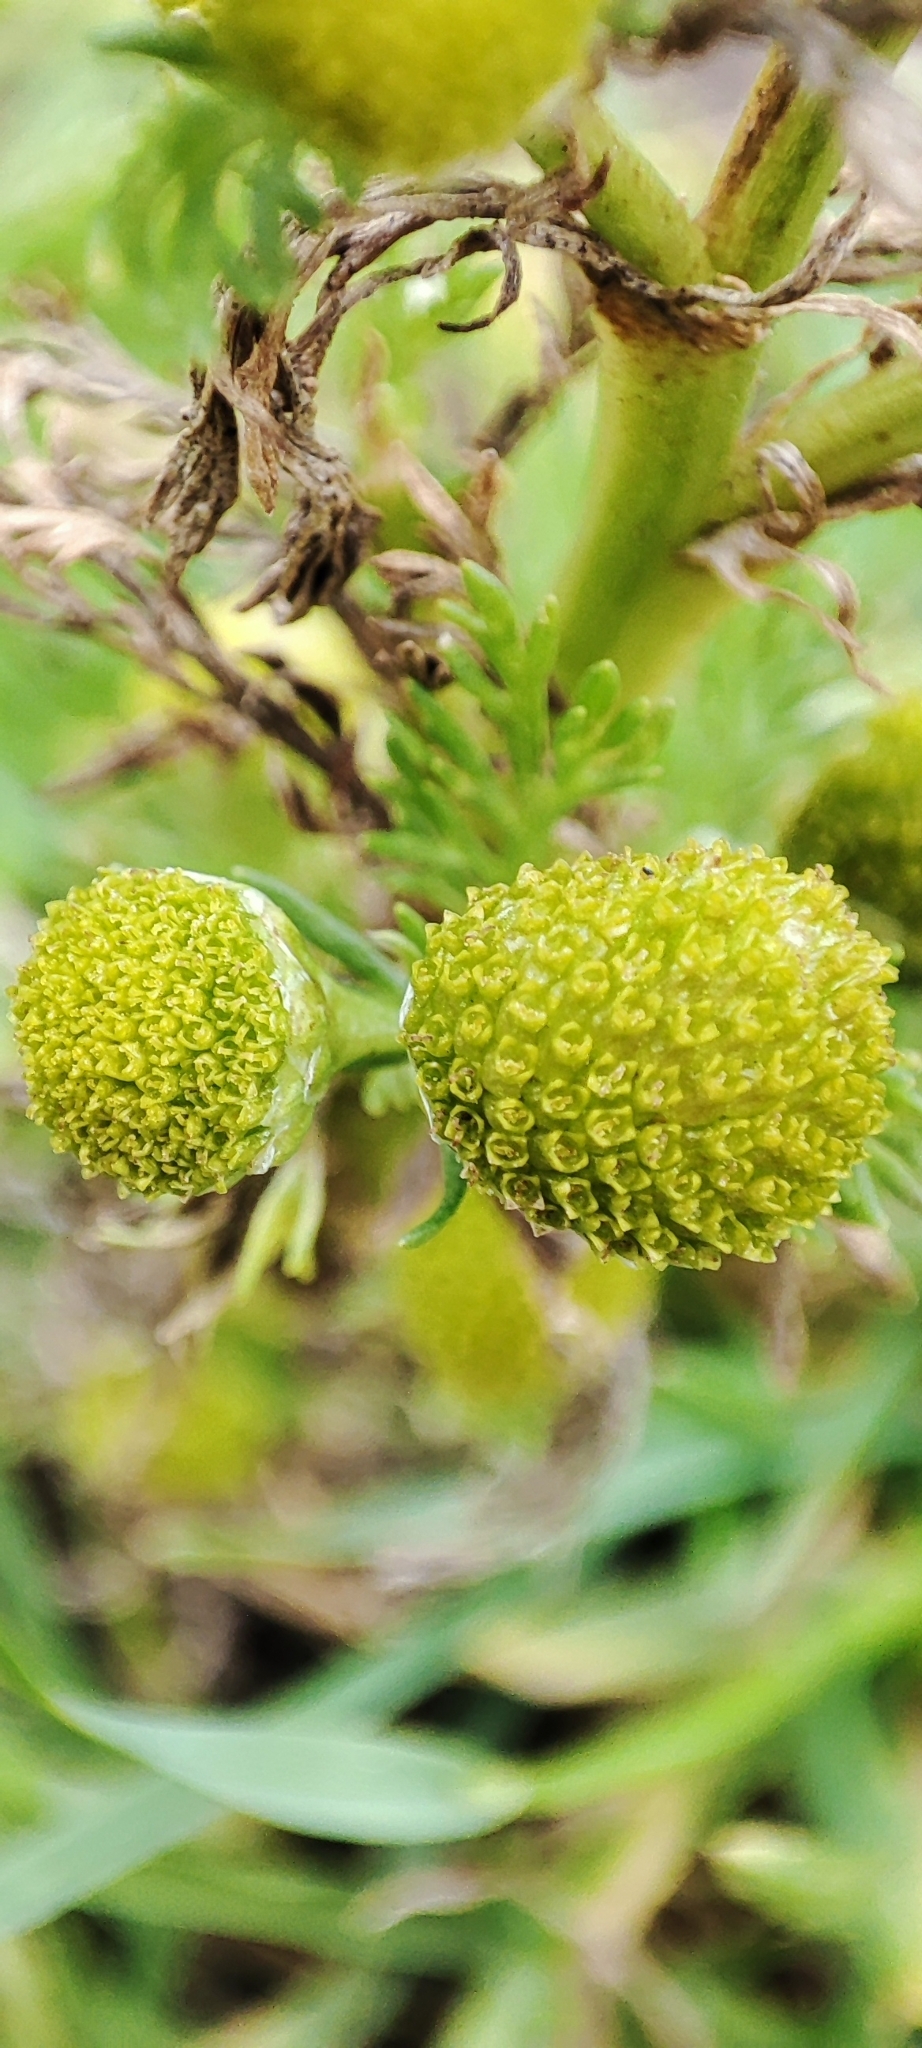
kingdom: Plantae
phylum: Tracheophyta
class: Magnoliopsida
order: Asterales
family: Asteraceae
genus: Matricaria
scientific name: Matricaria discoidea
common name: Disc mayweed
